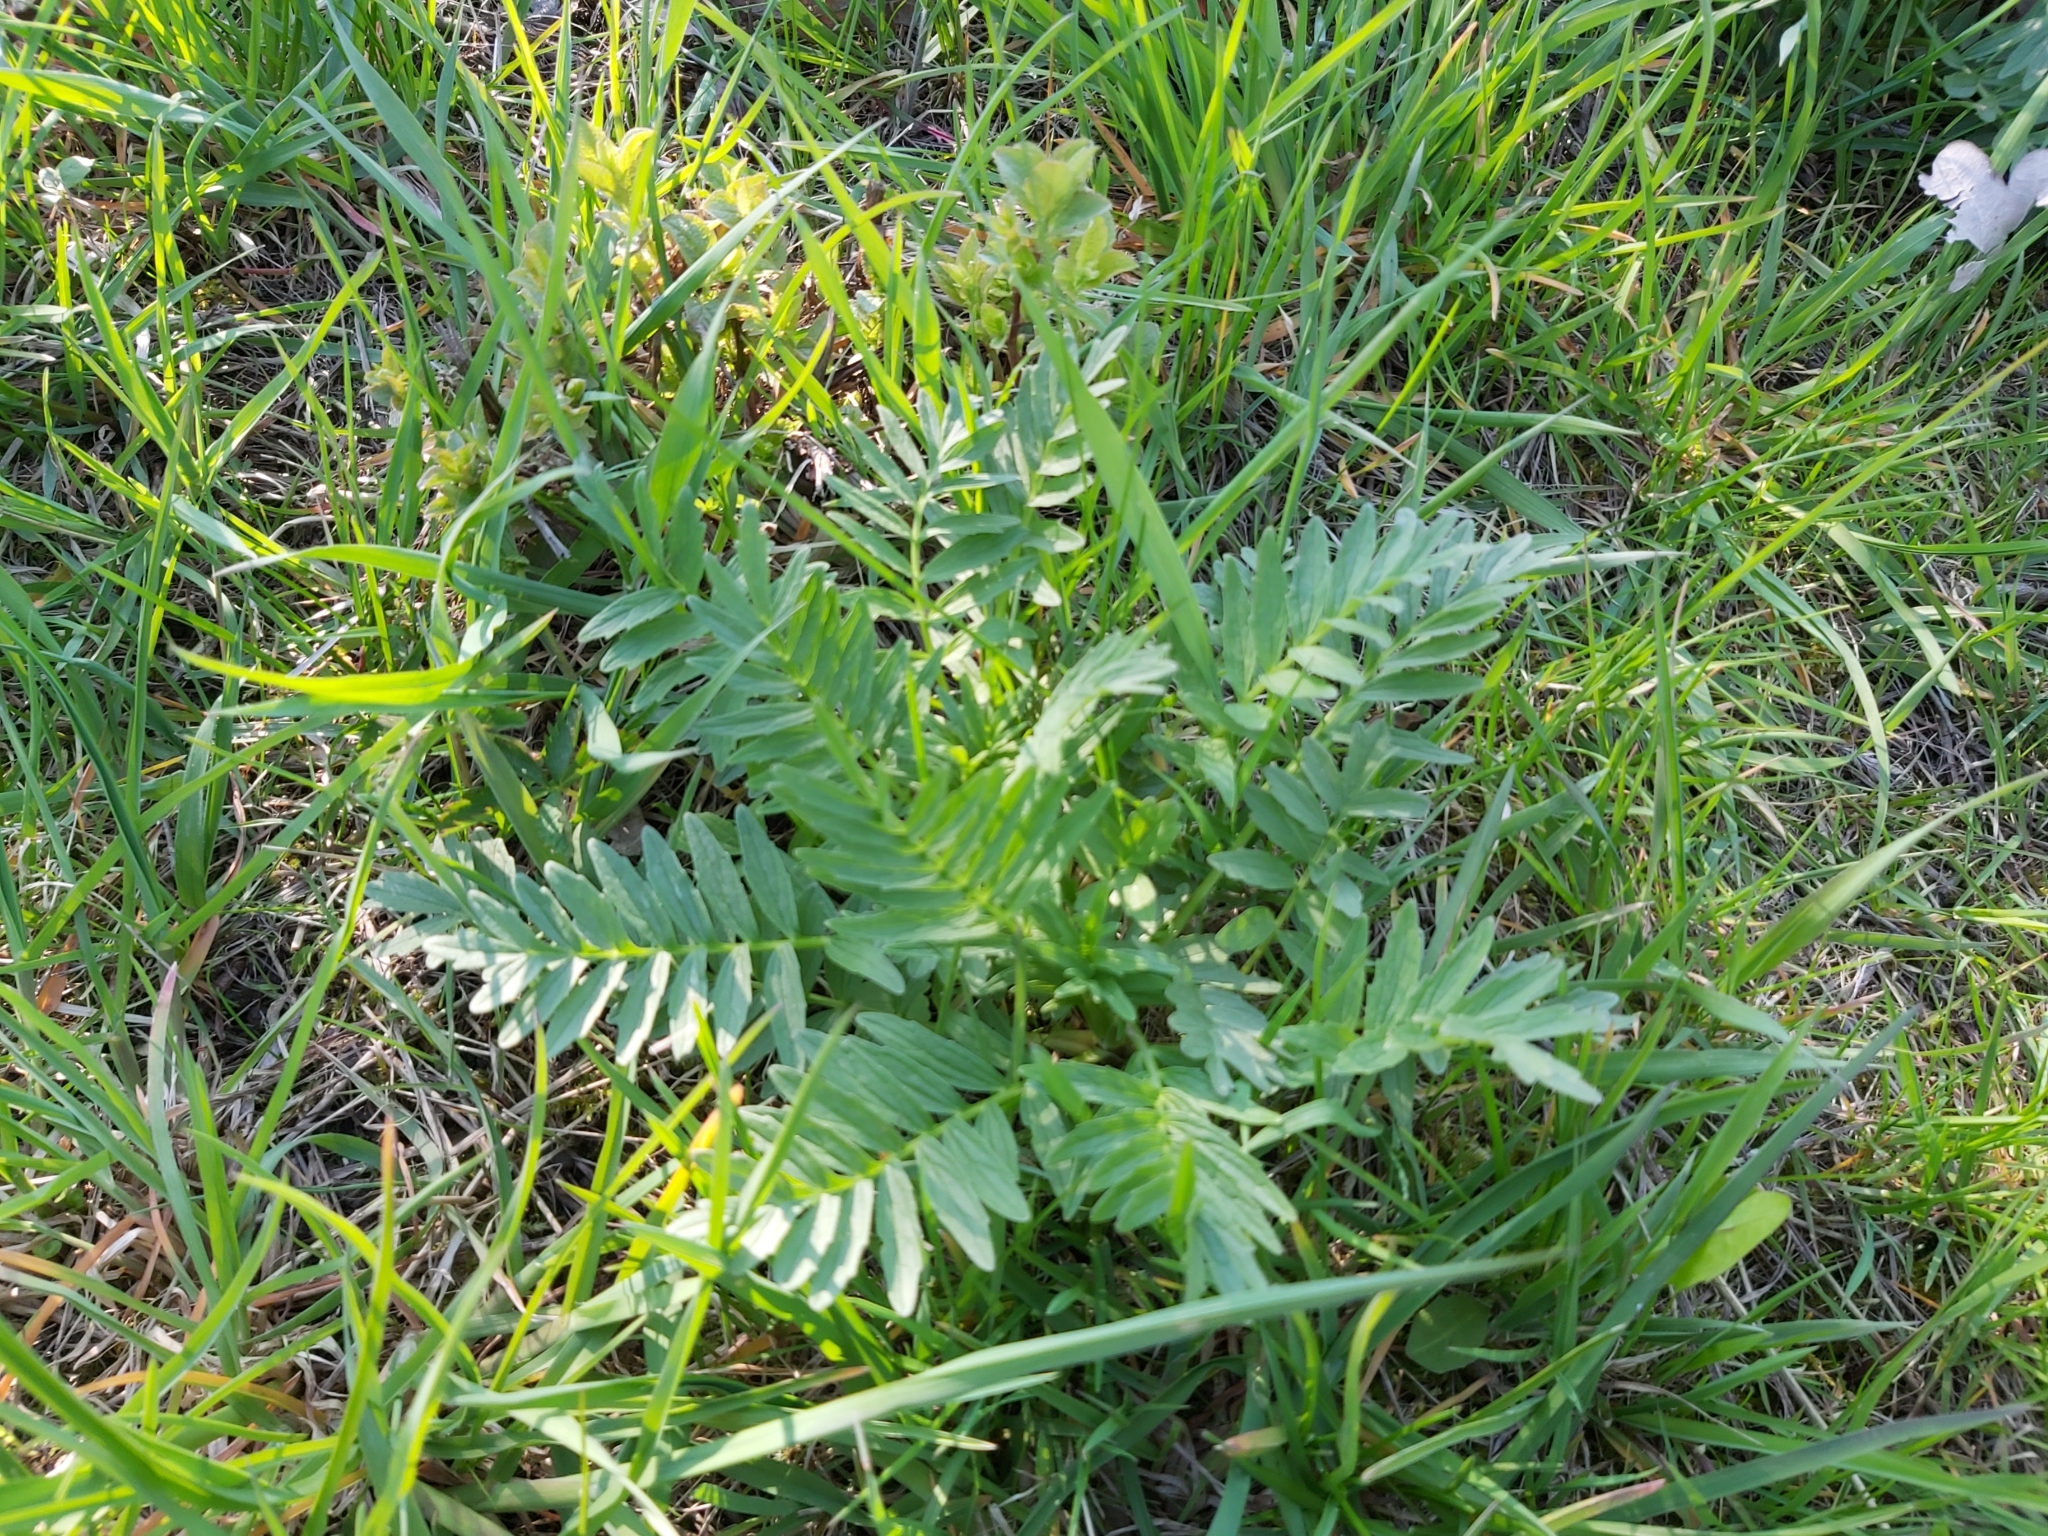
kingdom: Plantae
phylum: Tracheophyta
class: Magnoliopsida
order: Dipsacales
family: Caprifoliaceae
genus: Valeriana
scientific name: Valeriana officinalis
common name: Common valerian
